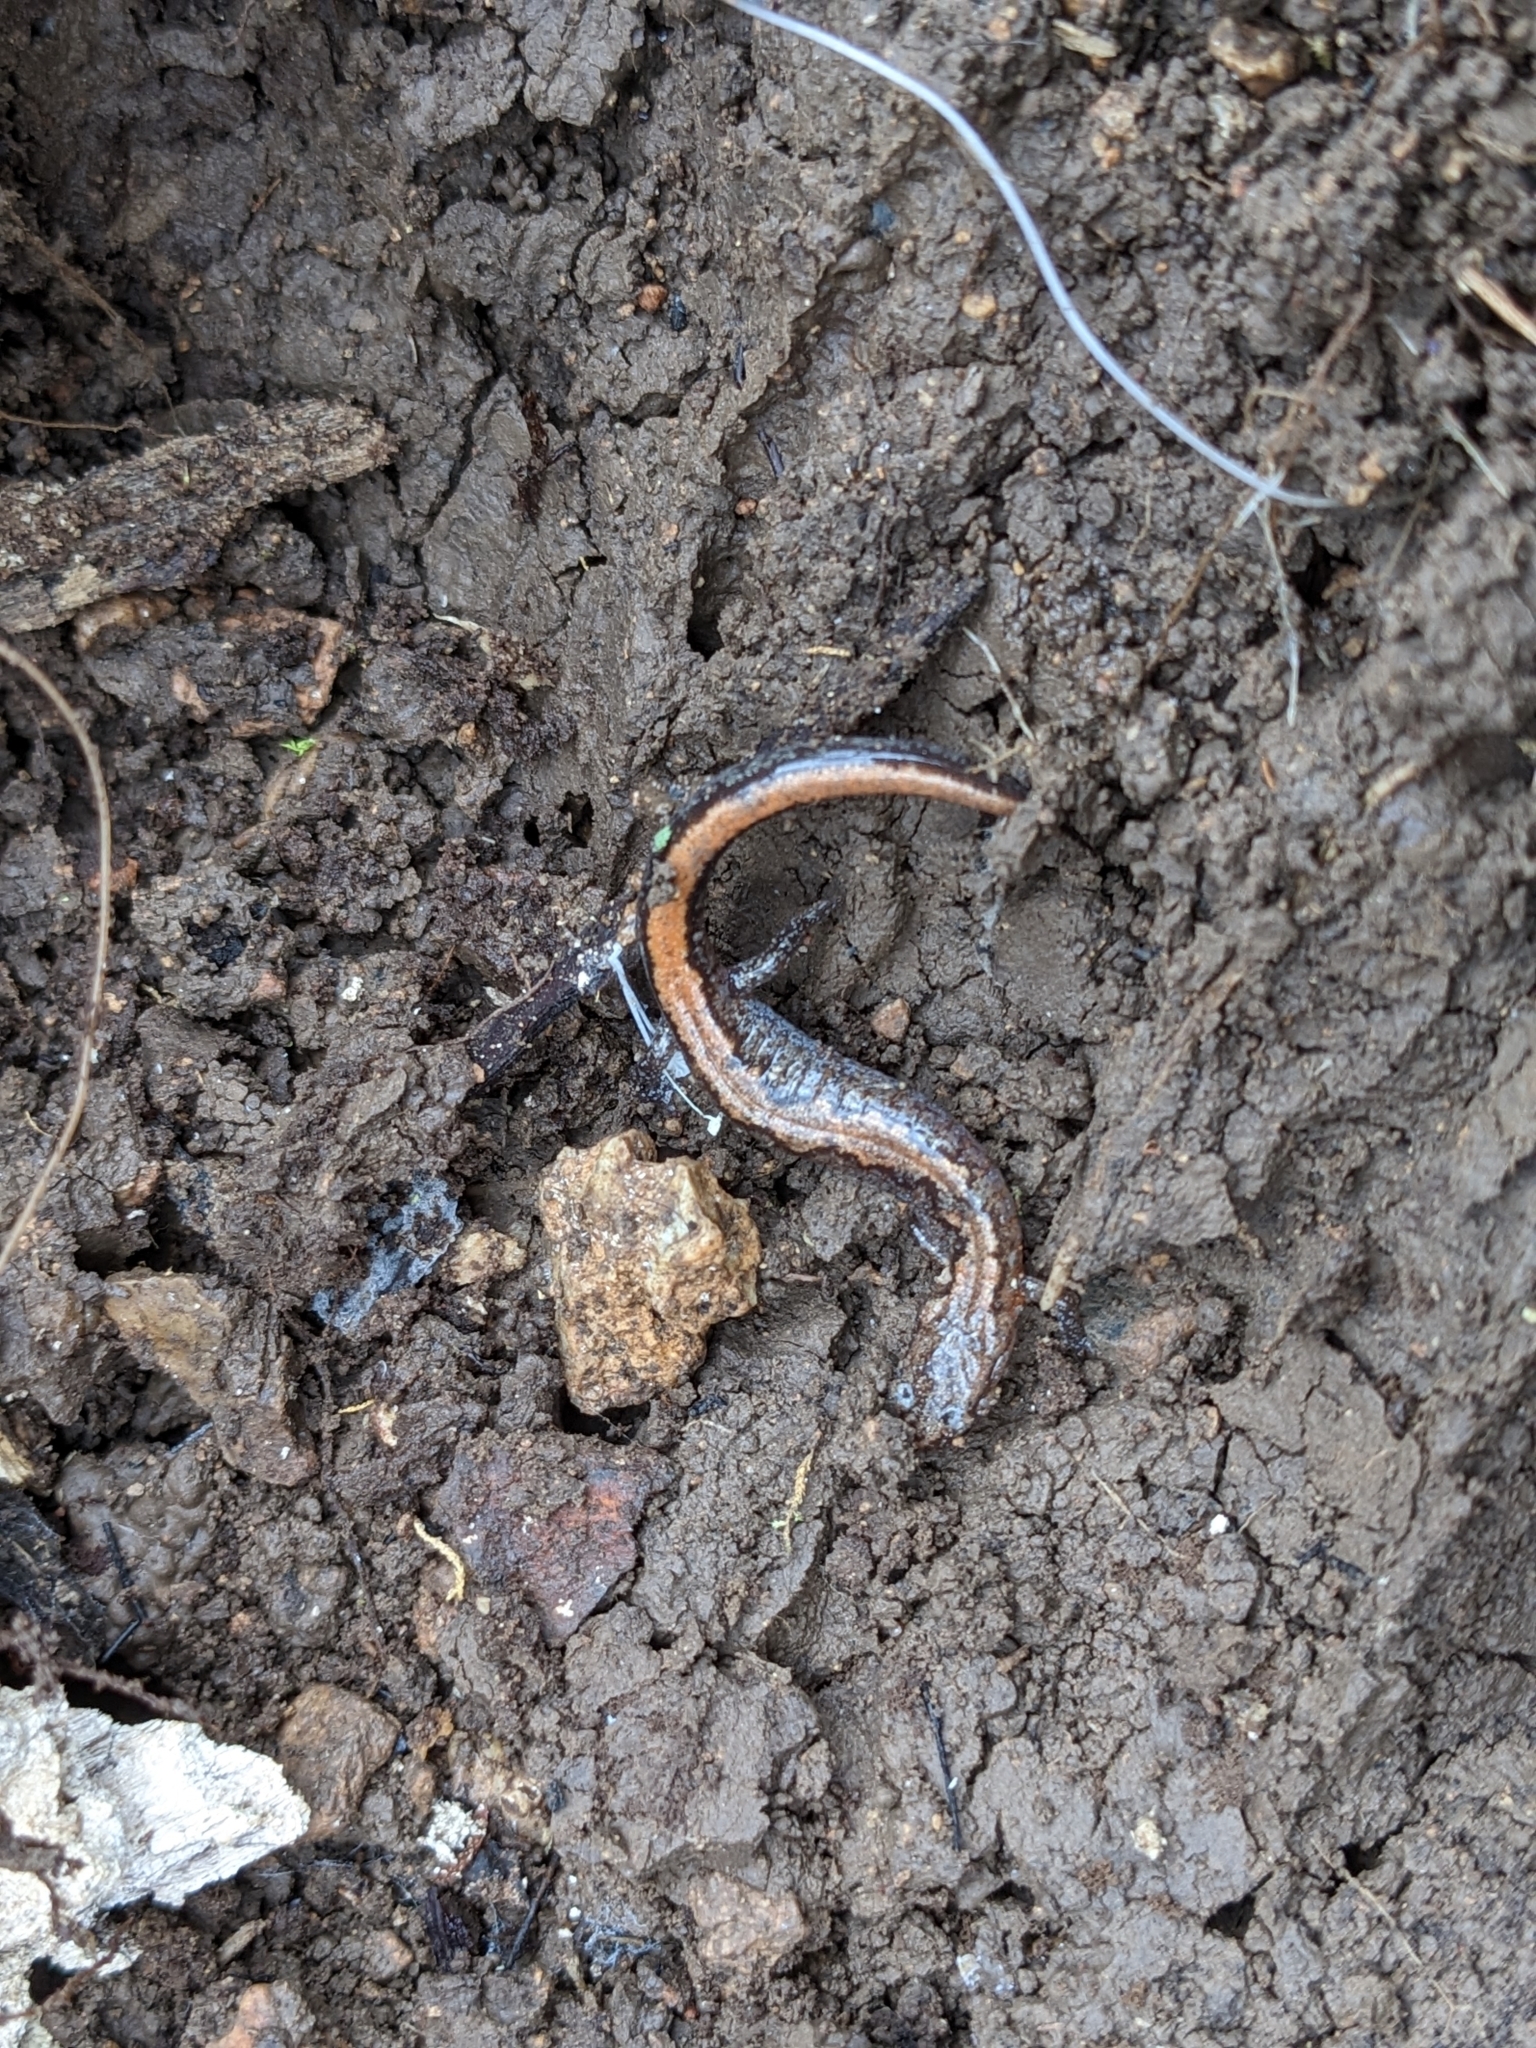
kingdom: Animalia
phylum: Chordata
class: Amphibia
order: Caudata
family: Plethodontidae
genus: Plethodon
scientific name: Plethodon dorsalis
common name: Northern zigzag salamander
